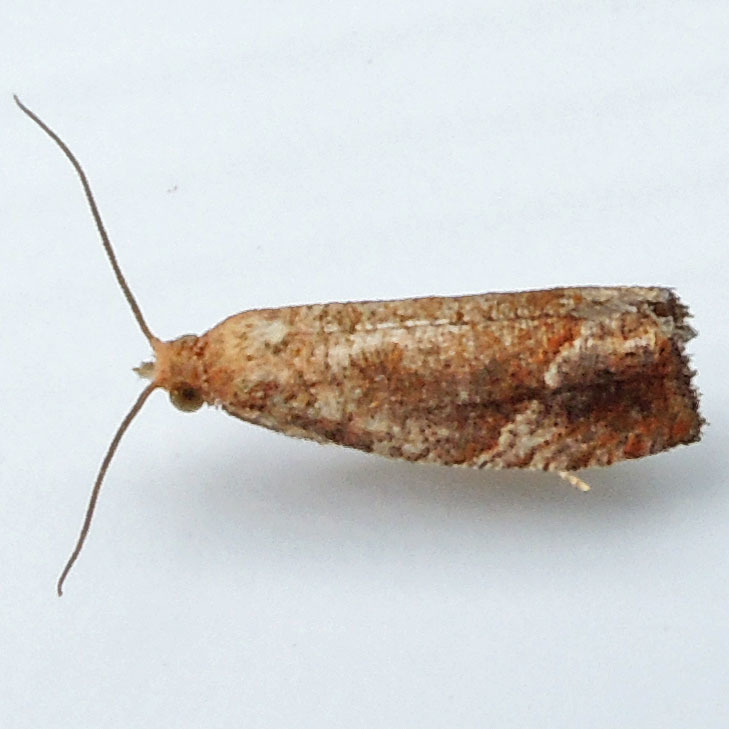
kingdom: Animalia
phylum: Arthropoda
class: Insecta
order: Lepidoptera
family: Tortricidae
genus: Pelochrista
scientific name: Pelochrista derelicta
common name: Derelict pelochrista moth
